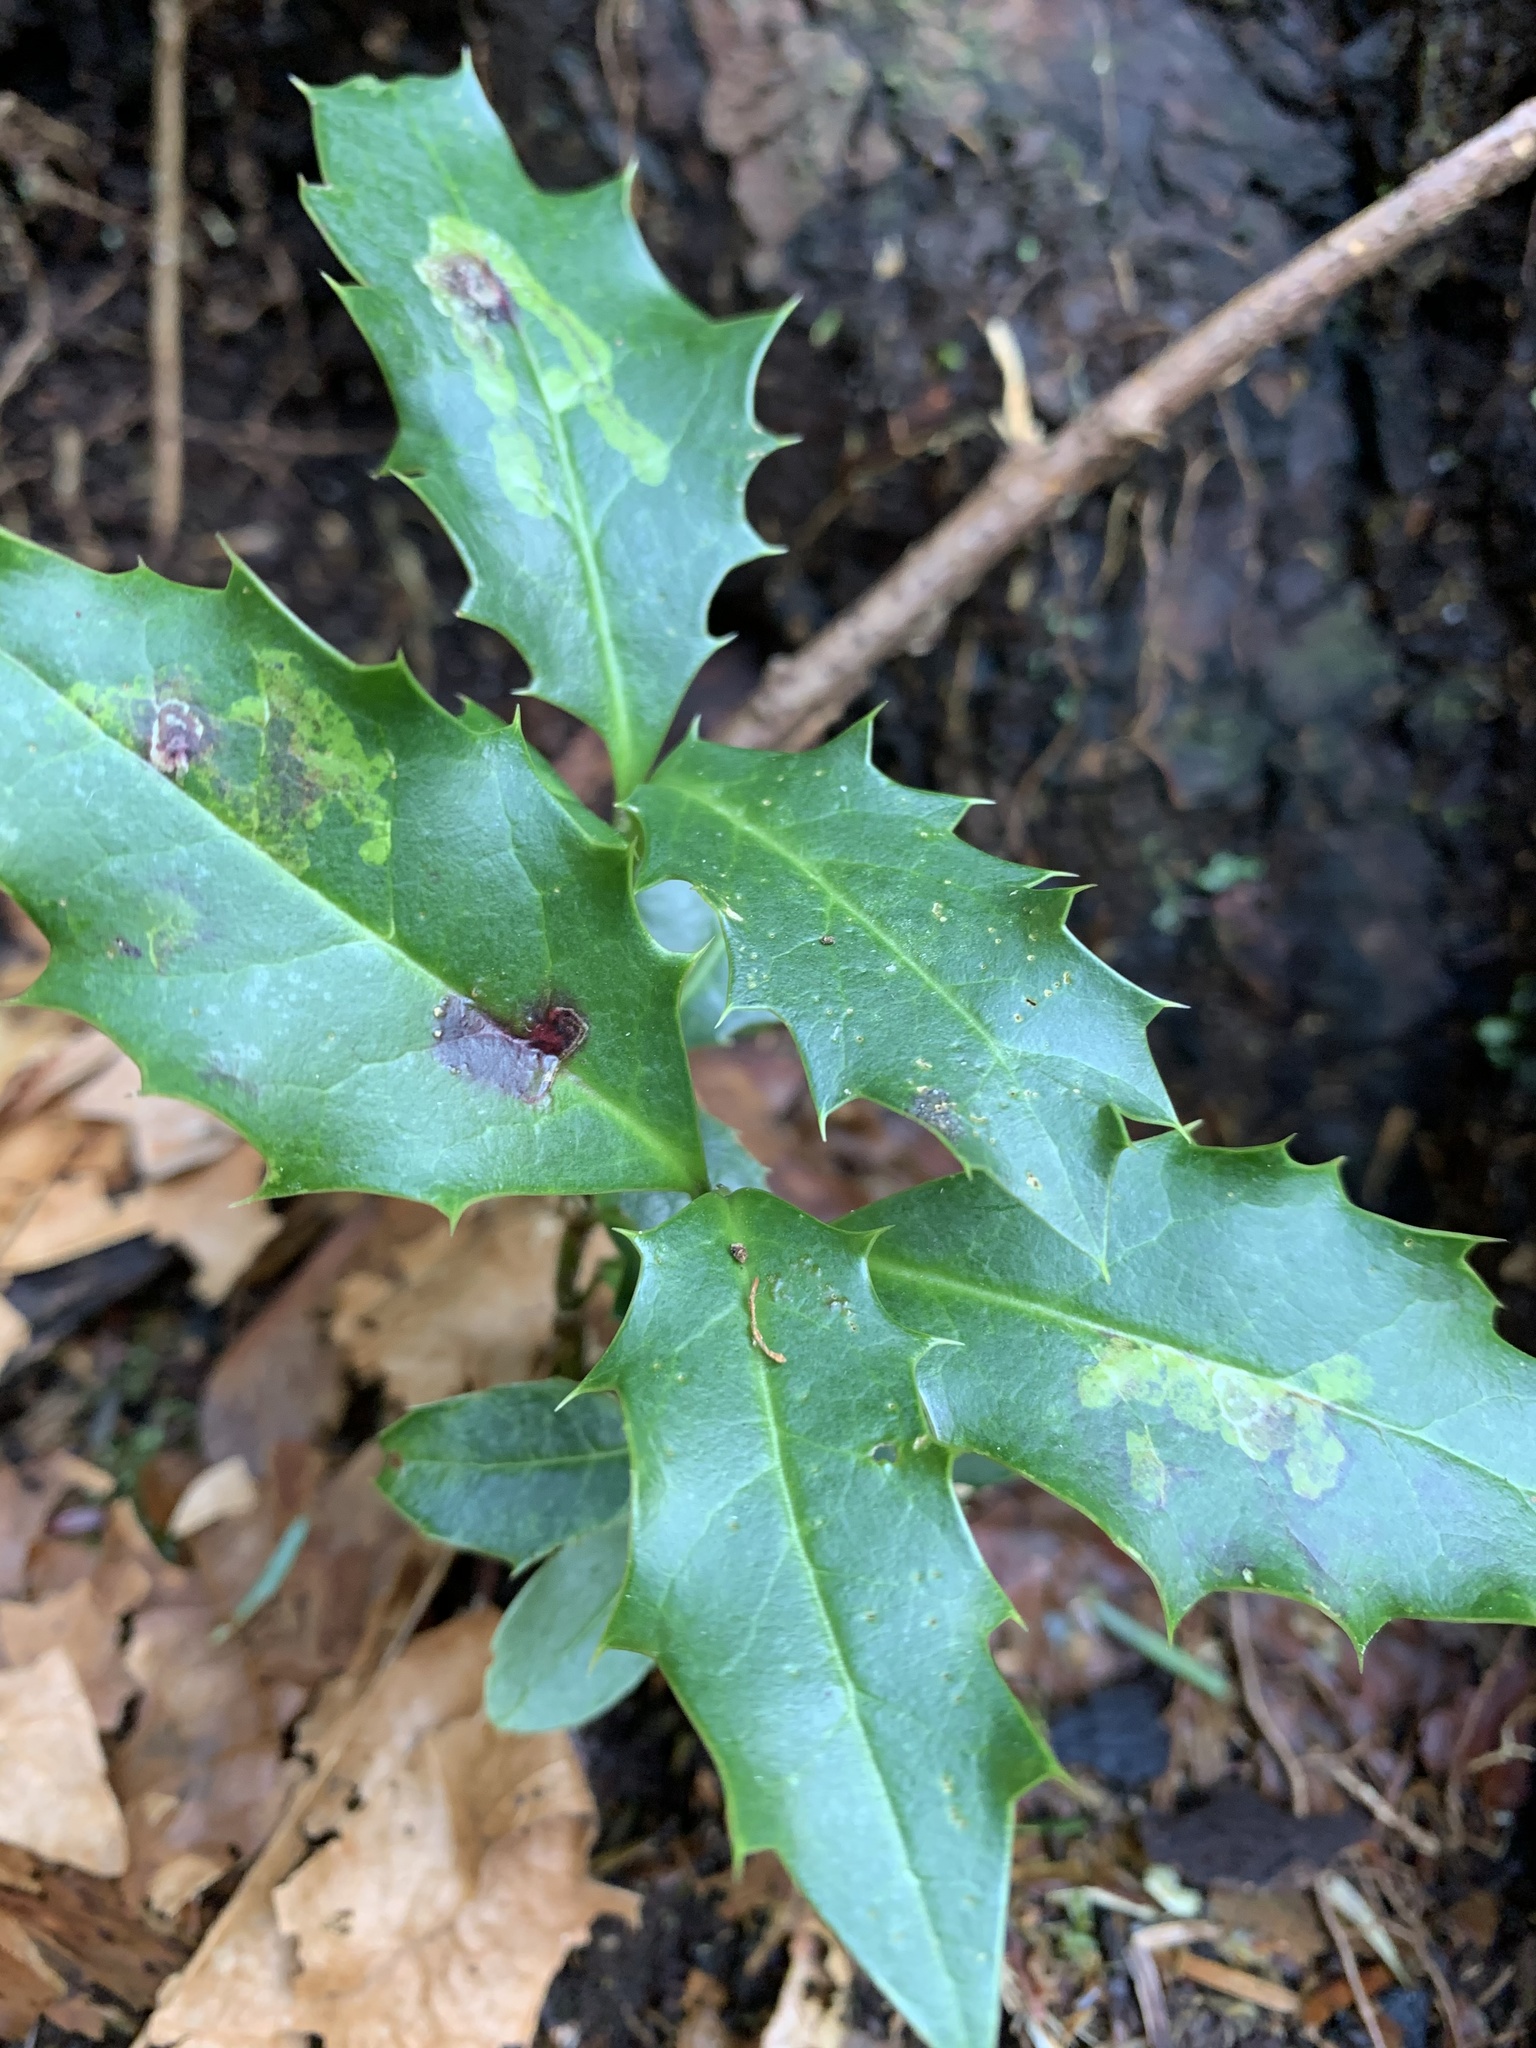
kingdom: Animalia
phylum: Arthropoda
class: Insecta
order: Diptera
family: Agromyzidae
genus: Phytomyza
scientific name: Phytomyza ilicis
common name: Holly leafminer
